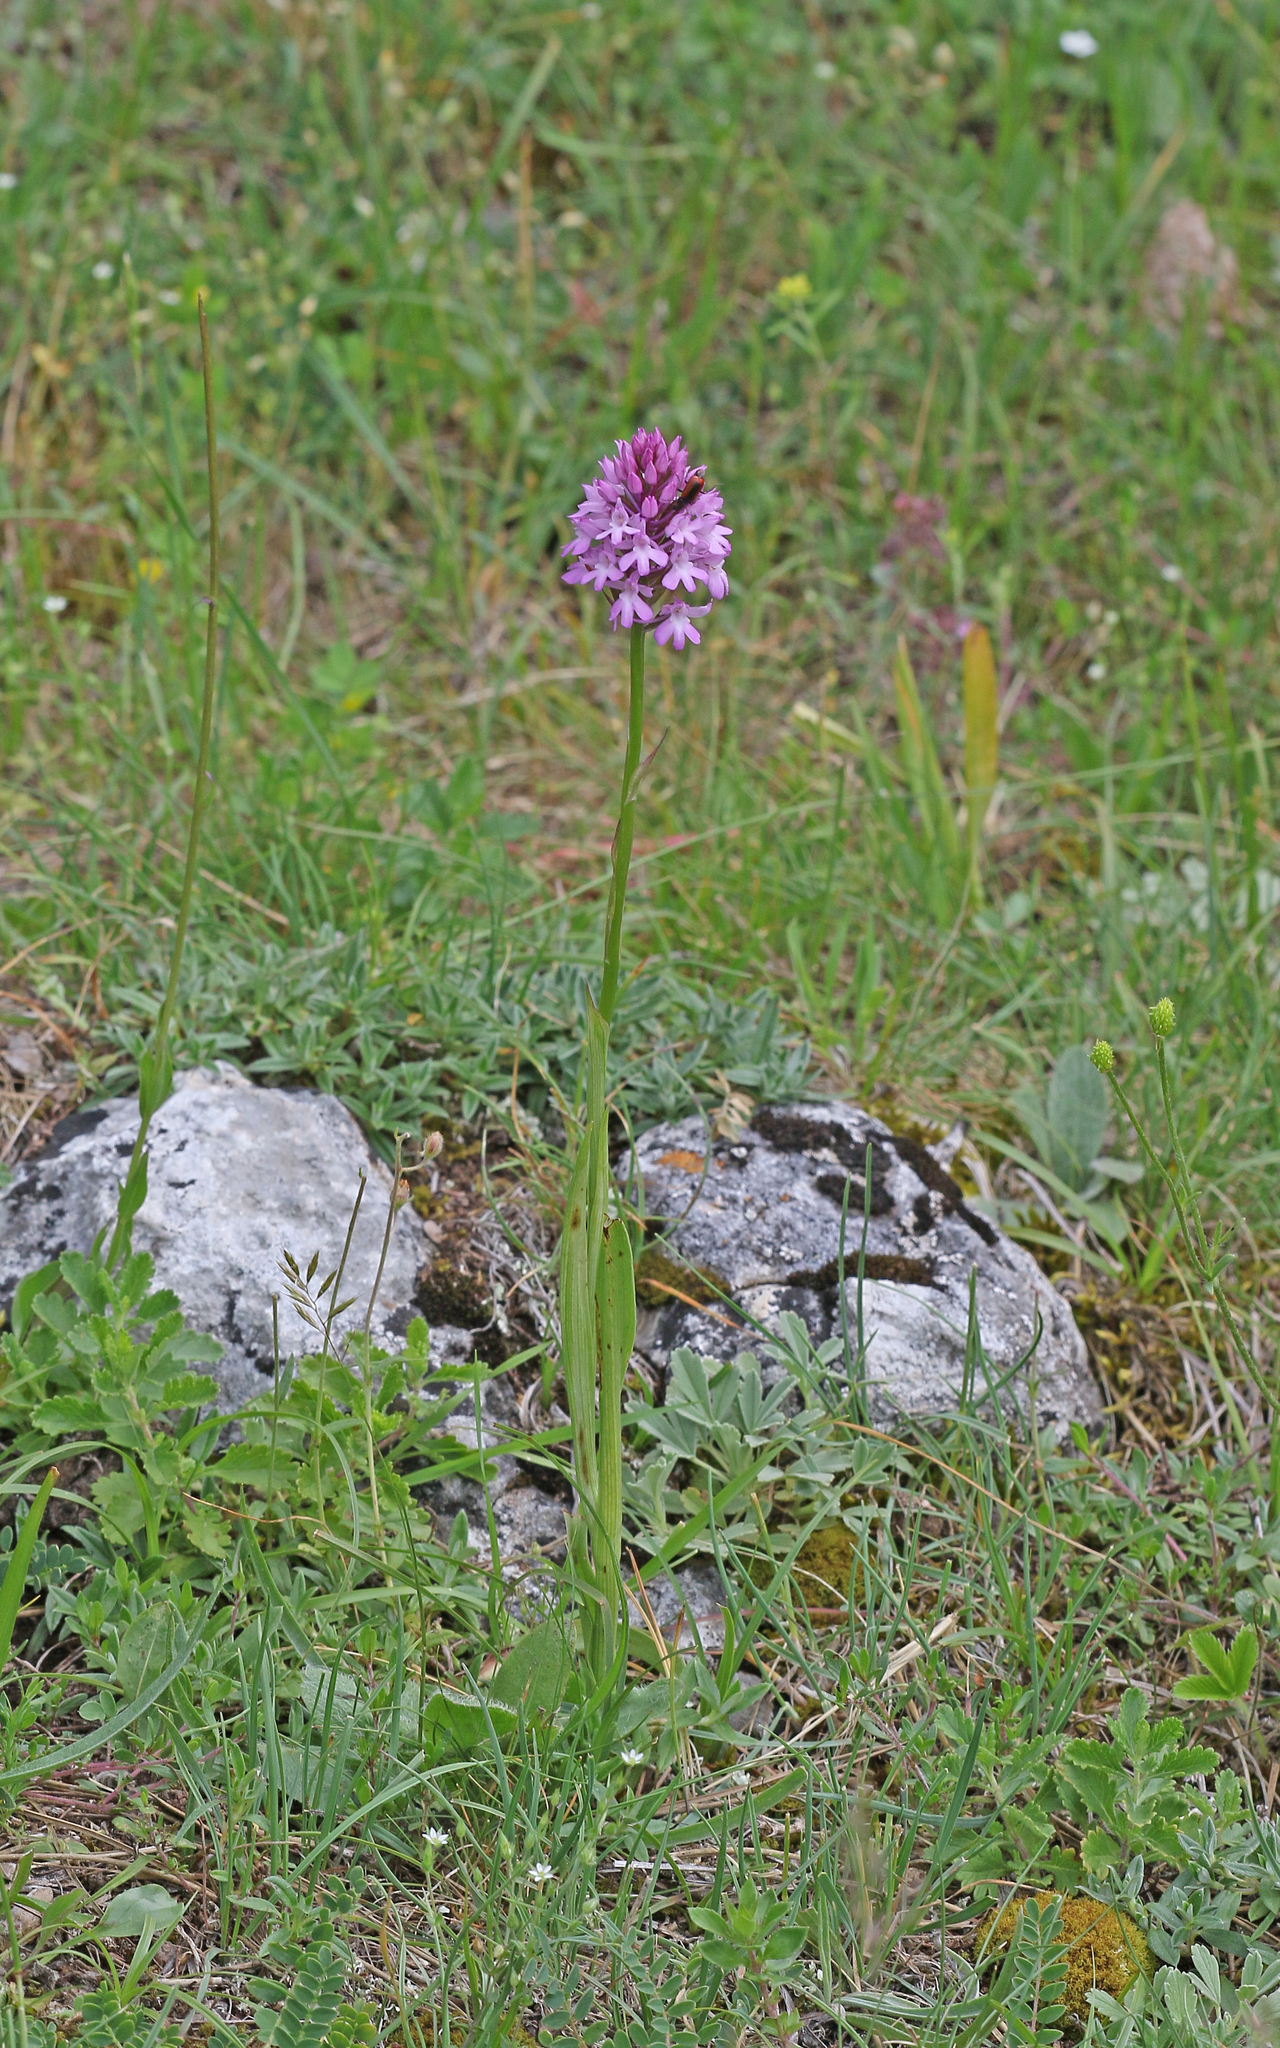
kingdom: Plantae
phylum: Tracheophyta
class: Liliopsida
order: Asparagales
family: Orchidaceae
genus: Anacamptis
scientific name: Anacamptis pyramidalis
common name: Pyramidal orchid
